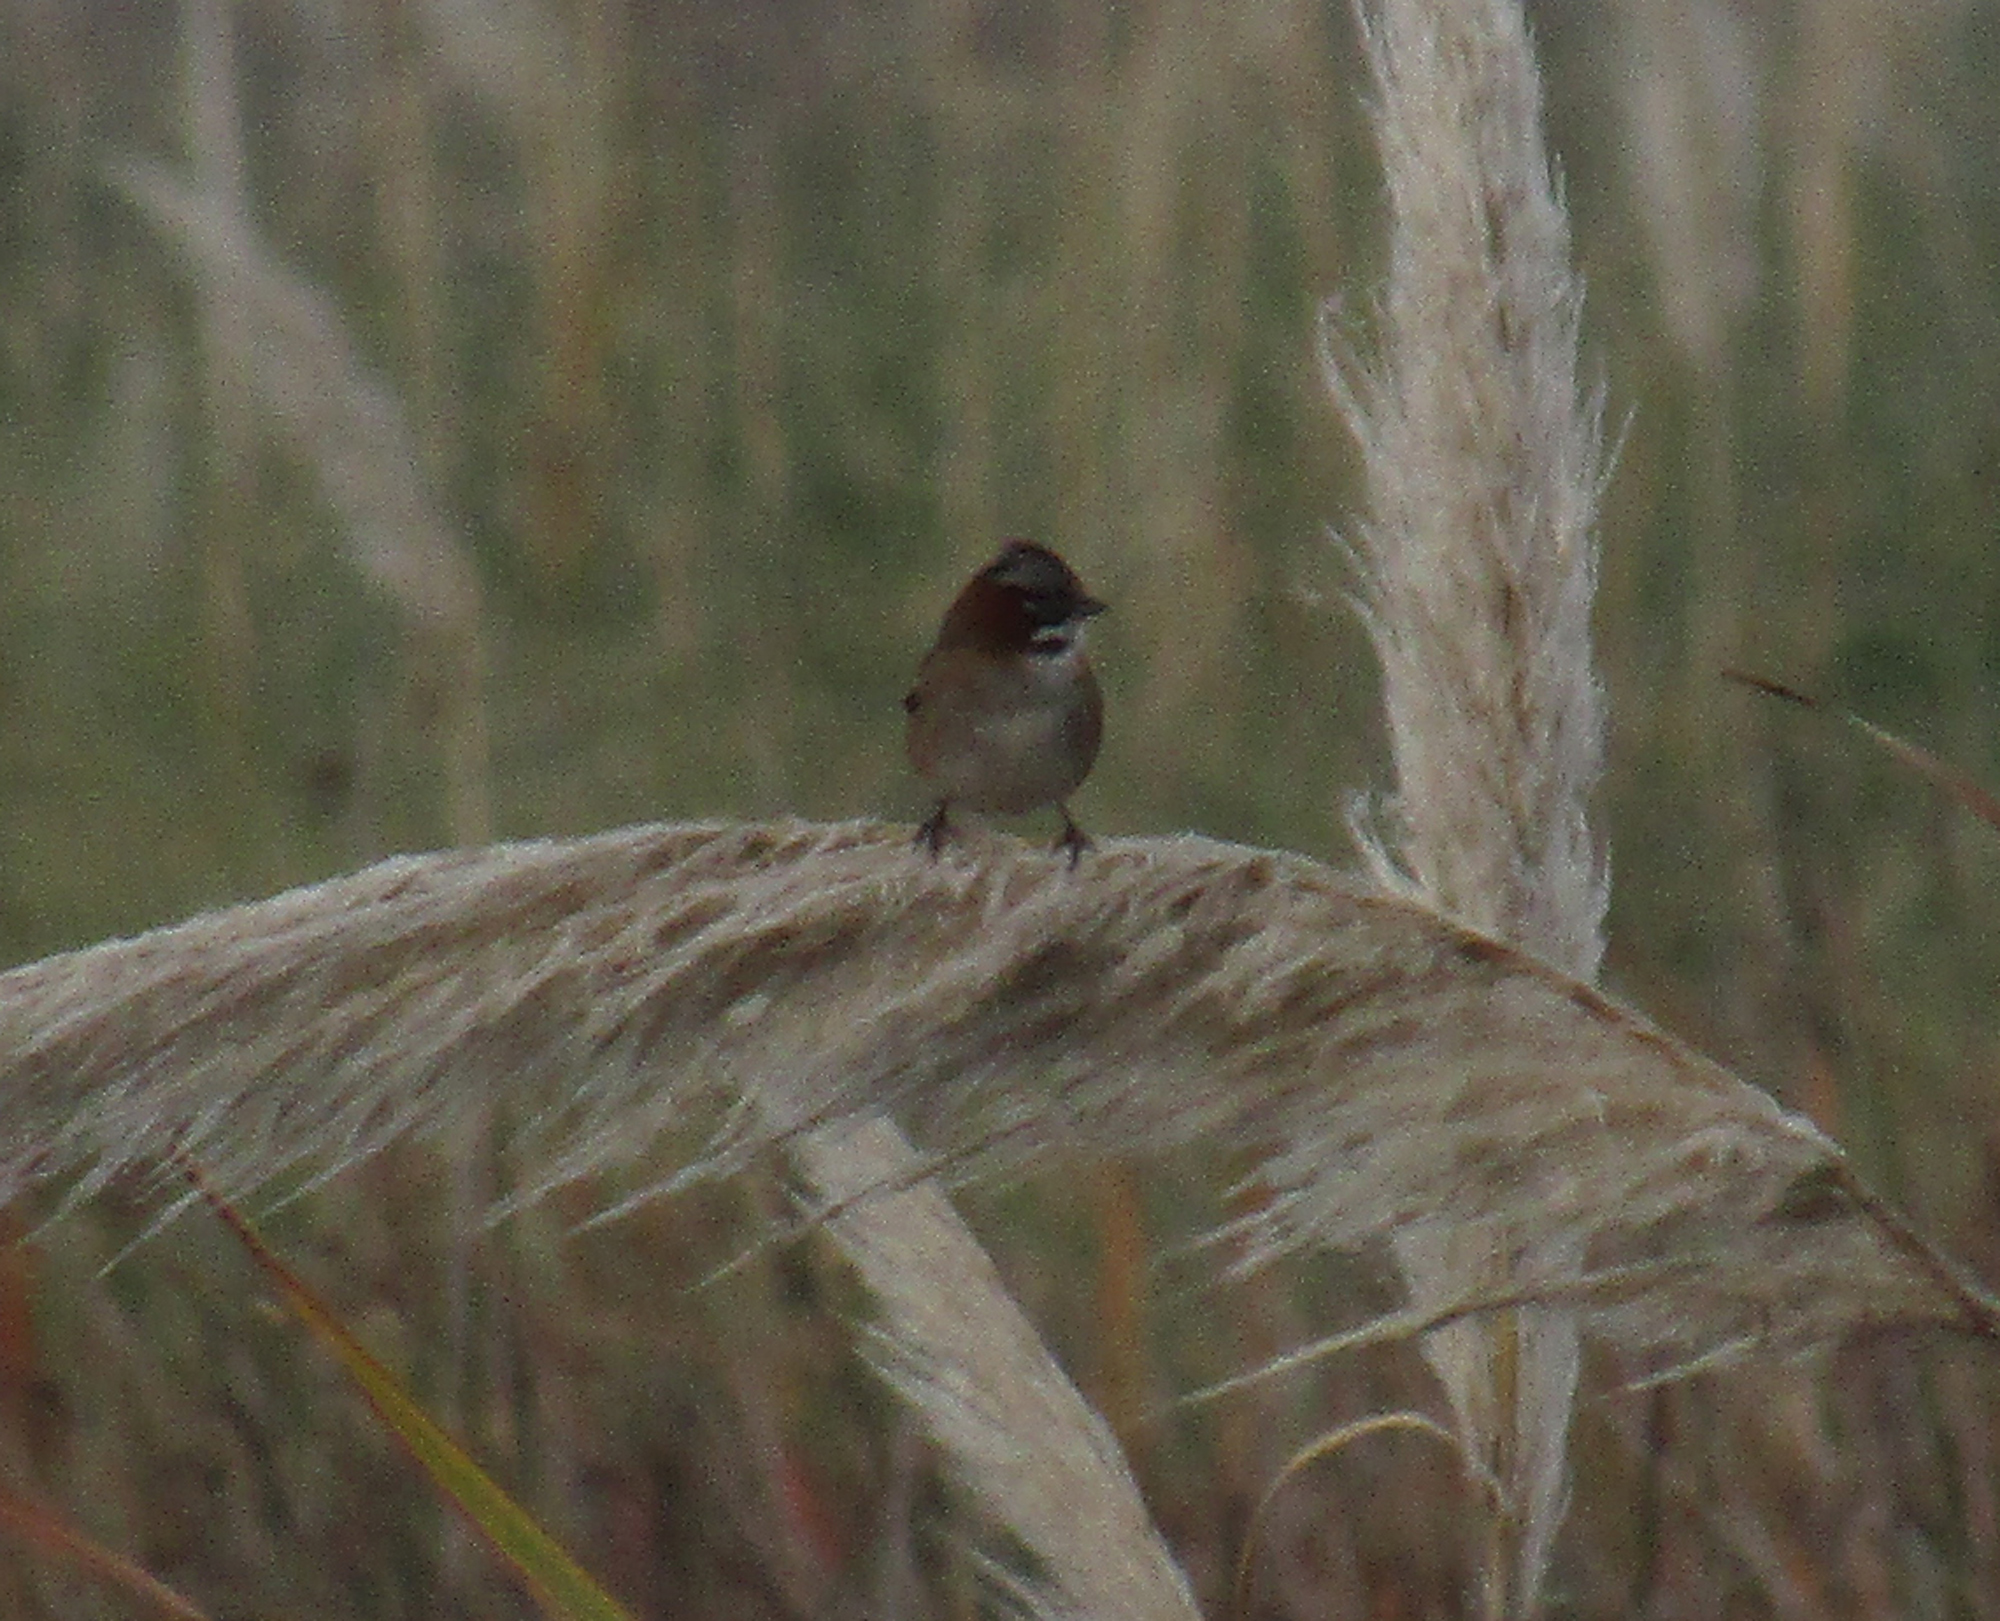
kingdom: Animalia
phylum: Chordata
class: Aves
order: Passeriformes
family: Passerellidae
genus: Zonotrichia
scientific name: Zonotrichia capensis
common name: Rufous-collared sparrow
